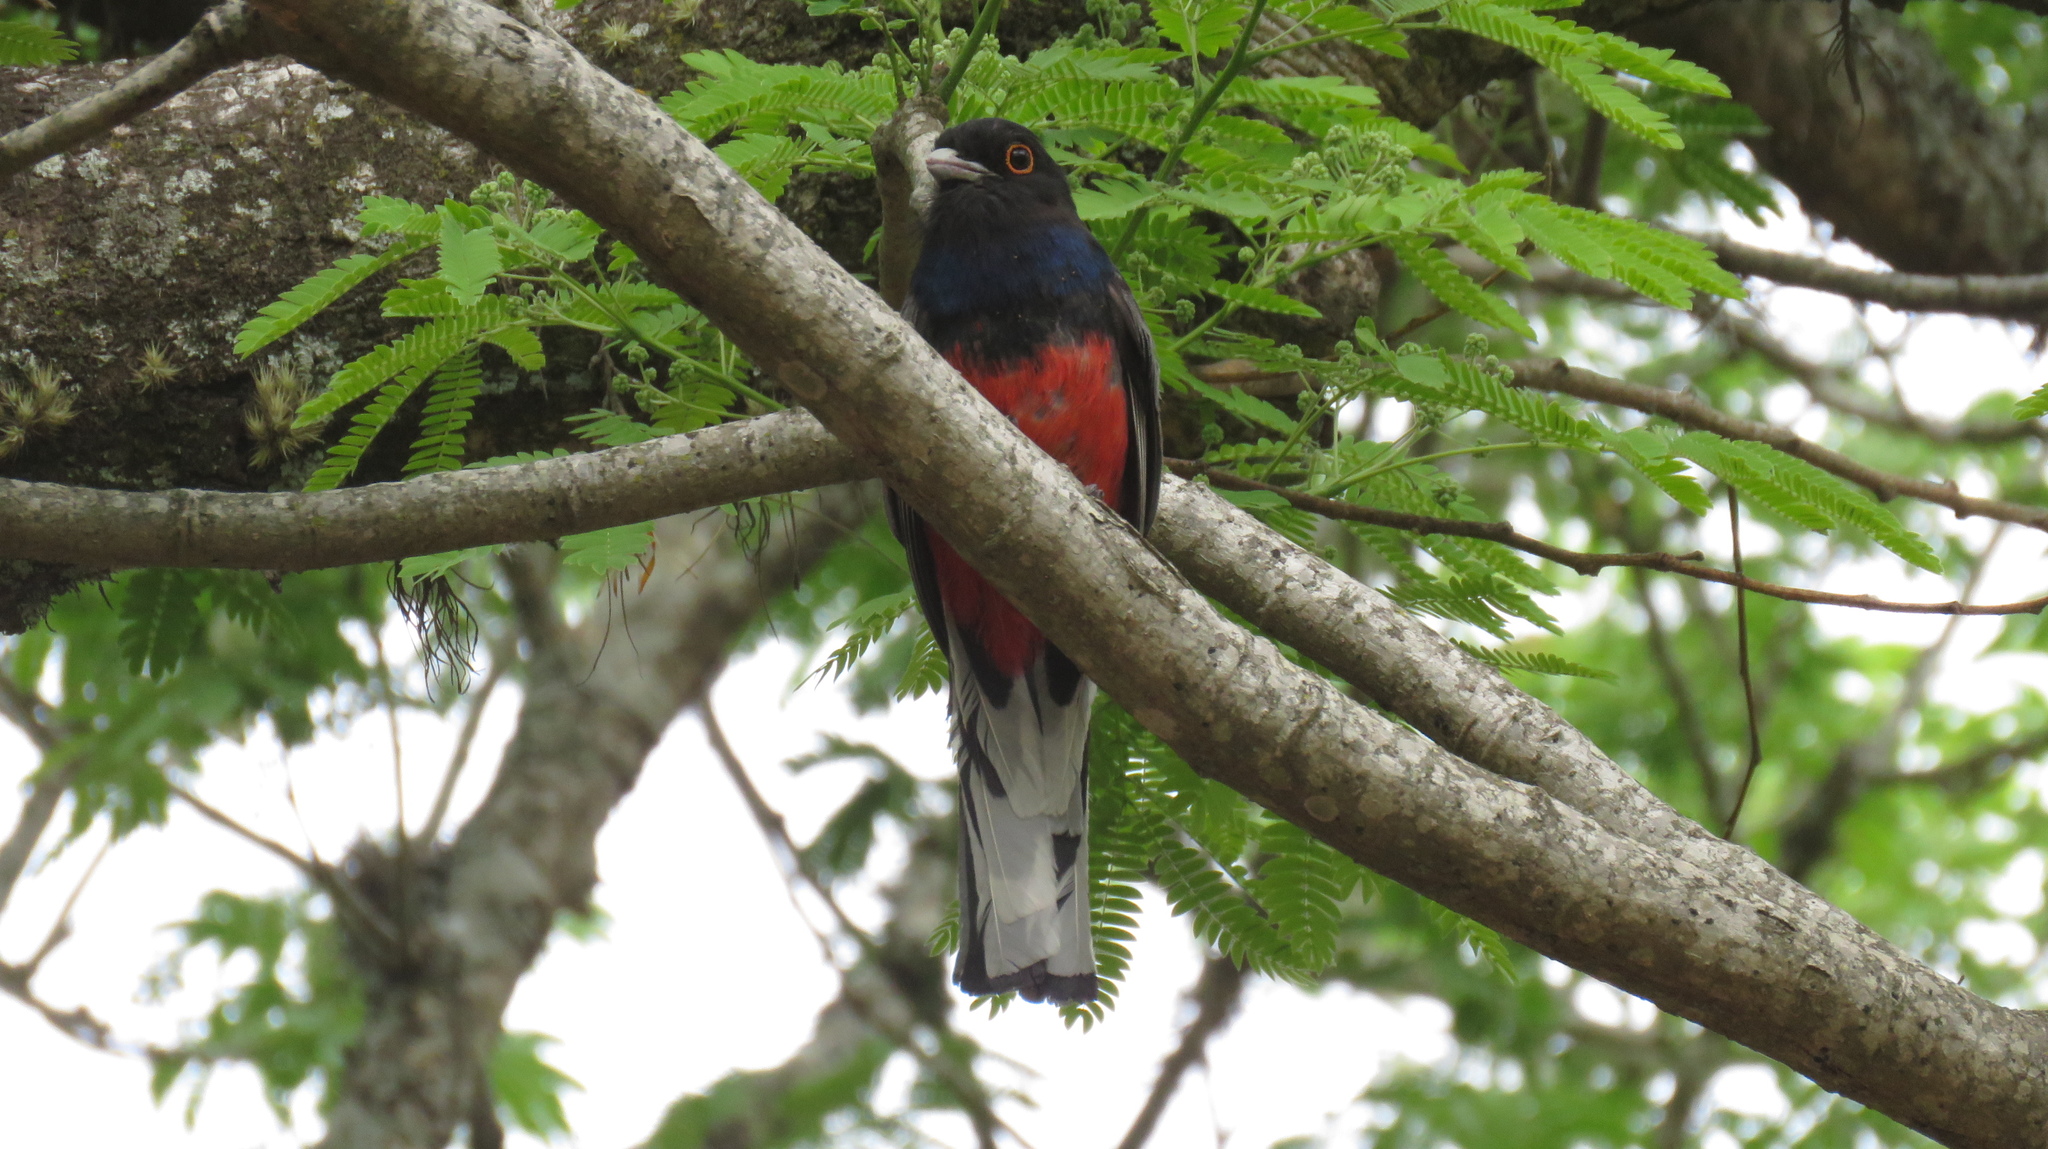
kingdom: Animalia
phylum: Chordata
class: Aves
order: Trogoniformes
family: Trogonidae
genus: Trogon
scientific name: Trogon surrucura
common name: Surucua trogon
